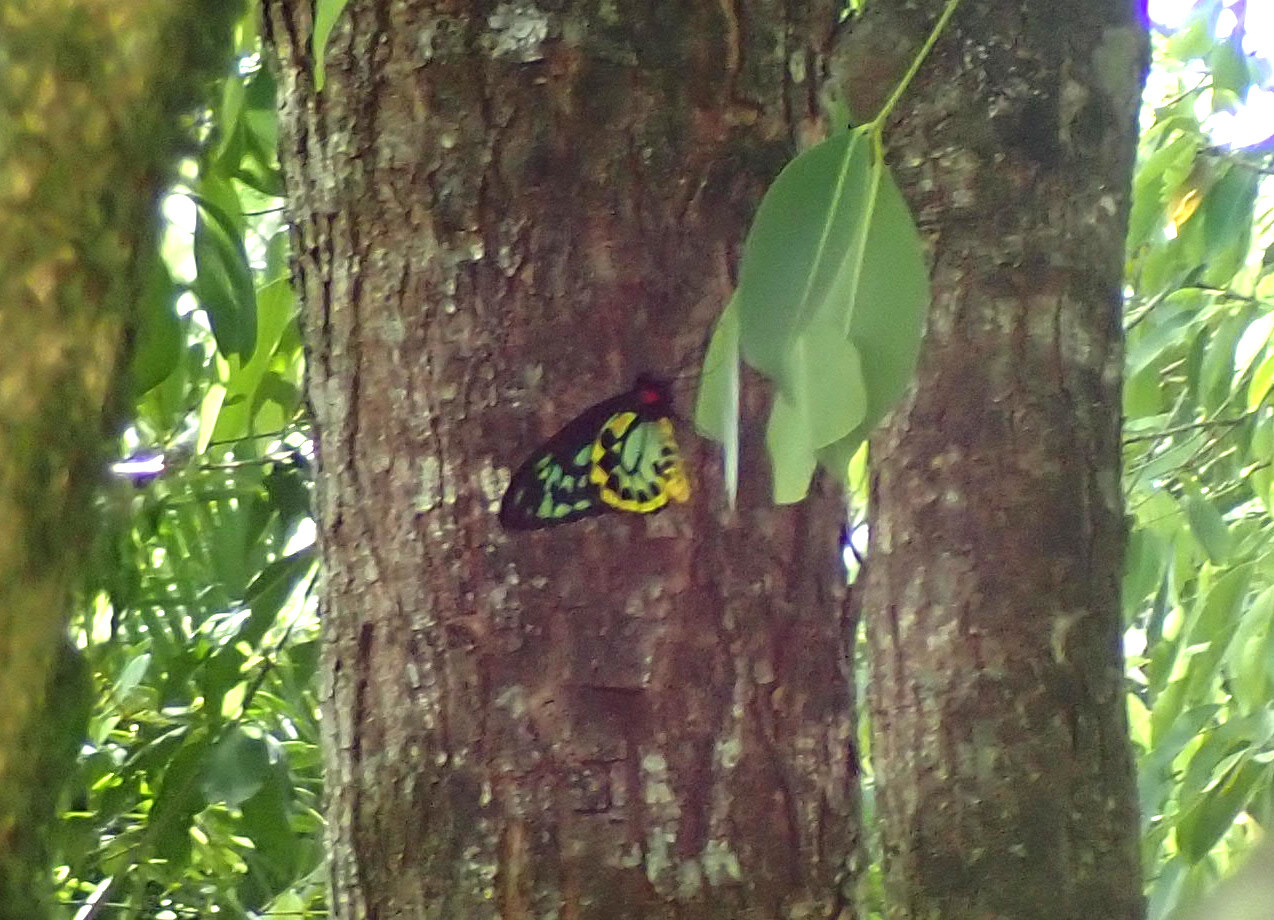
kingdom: Animalia
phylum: Arthropoda
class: Insecta
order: Lepidoptera
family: Papilionidae
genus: Ornithoptera
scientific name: Ornithoptera euphorion
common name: Cairns birdwing
